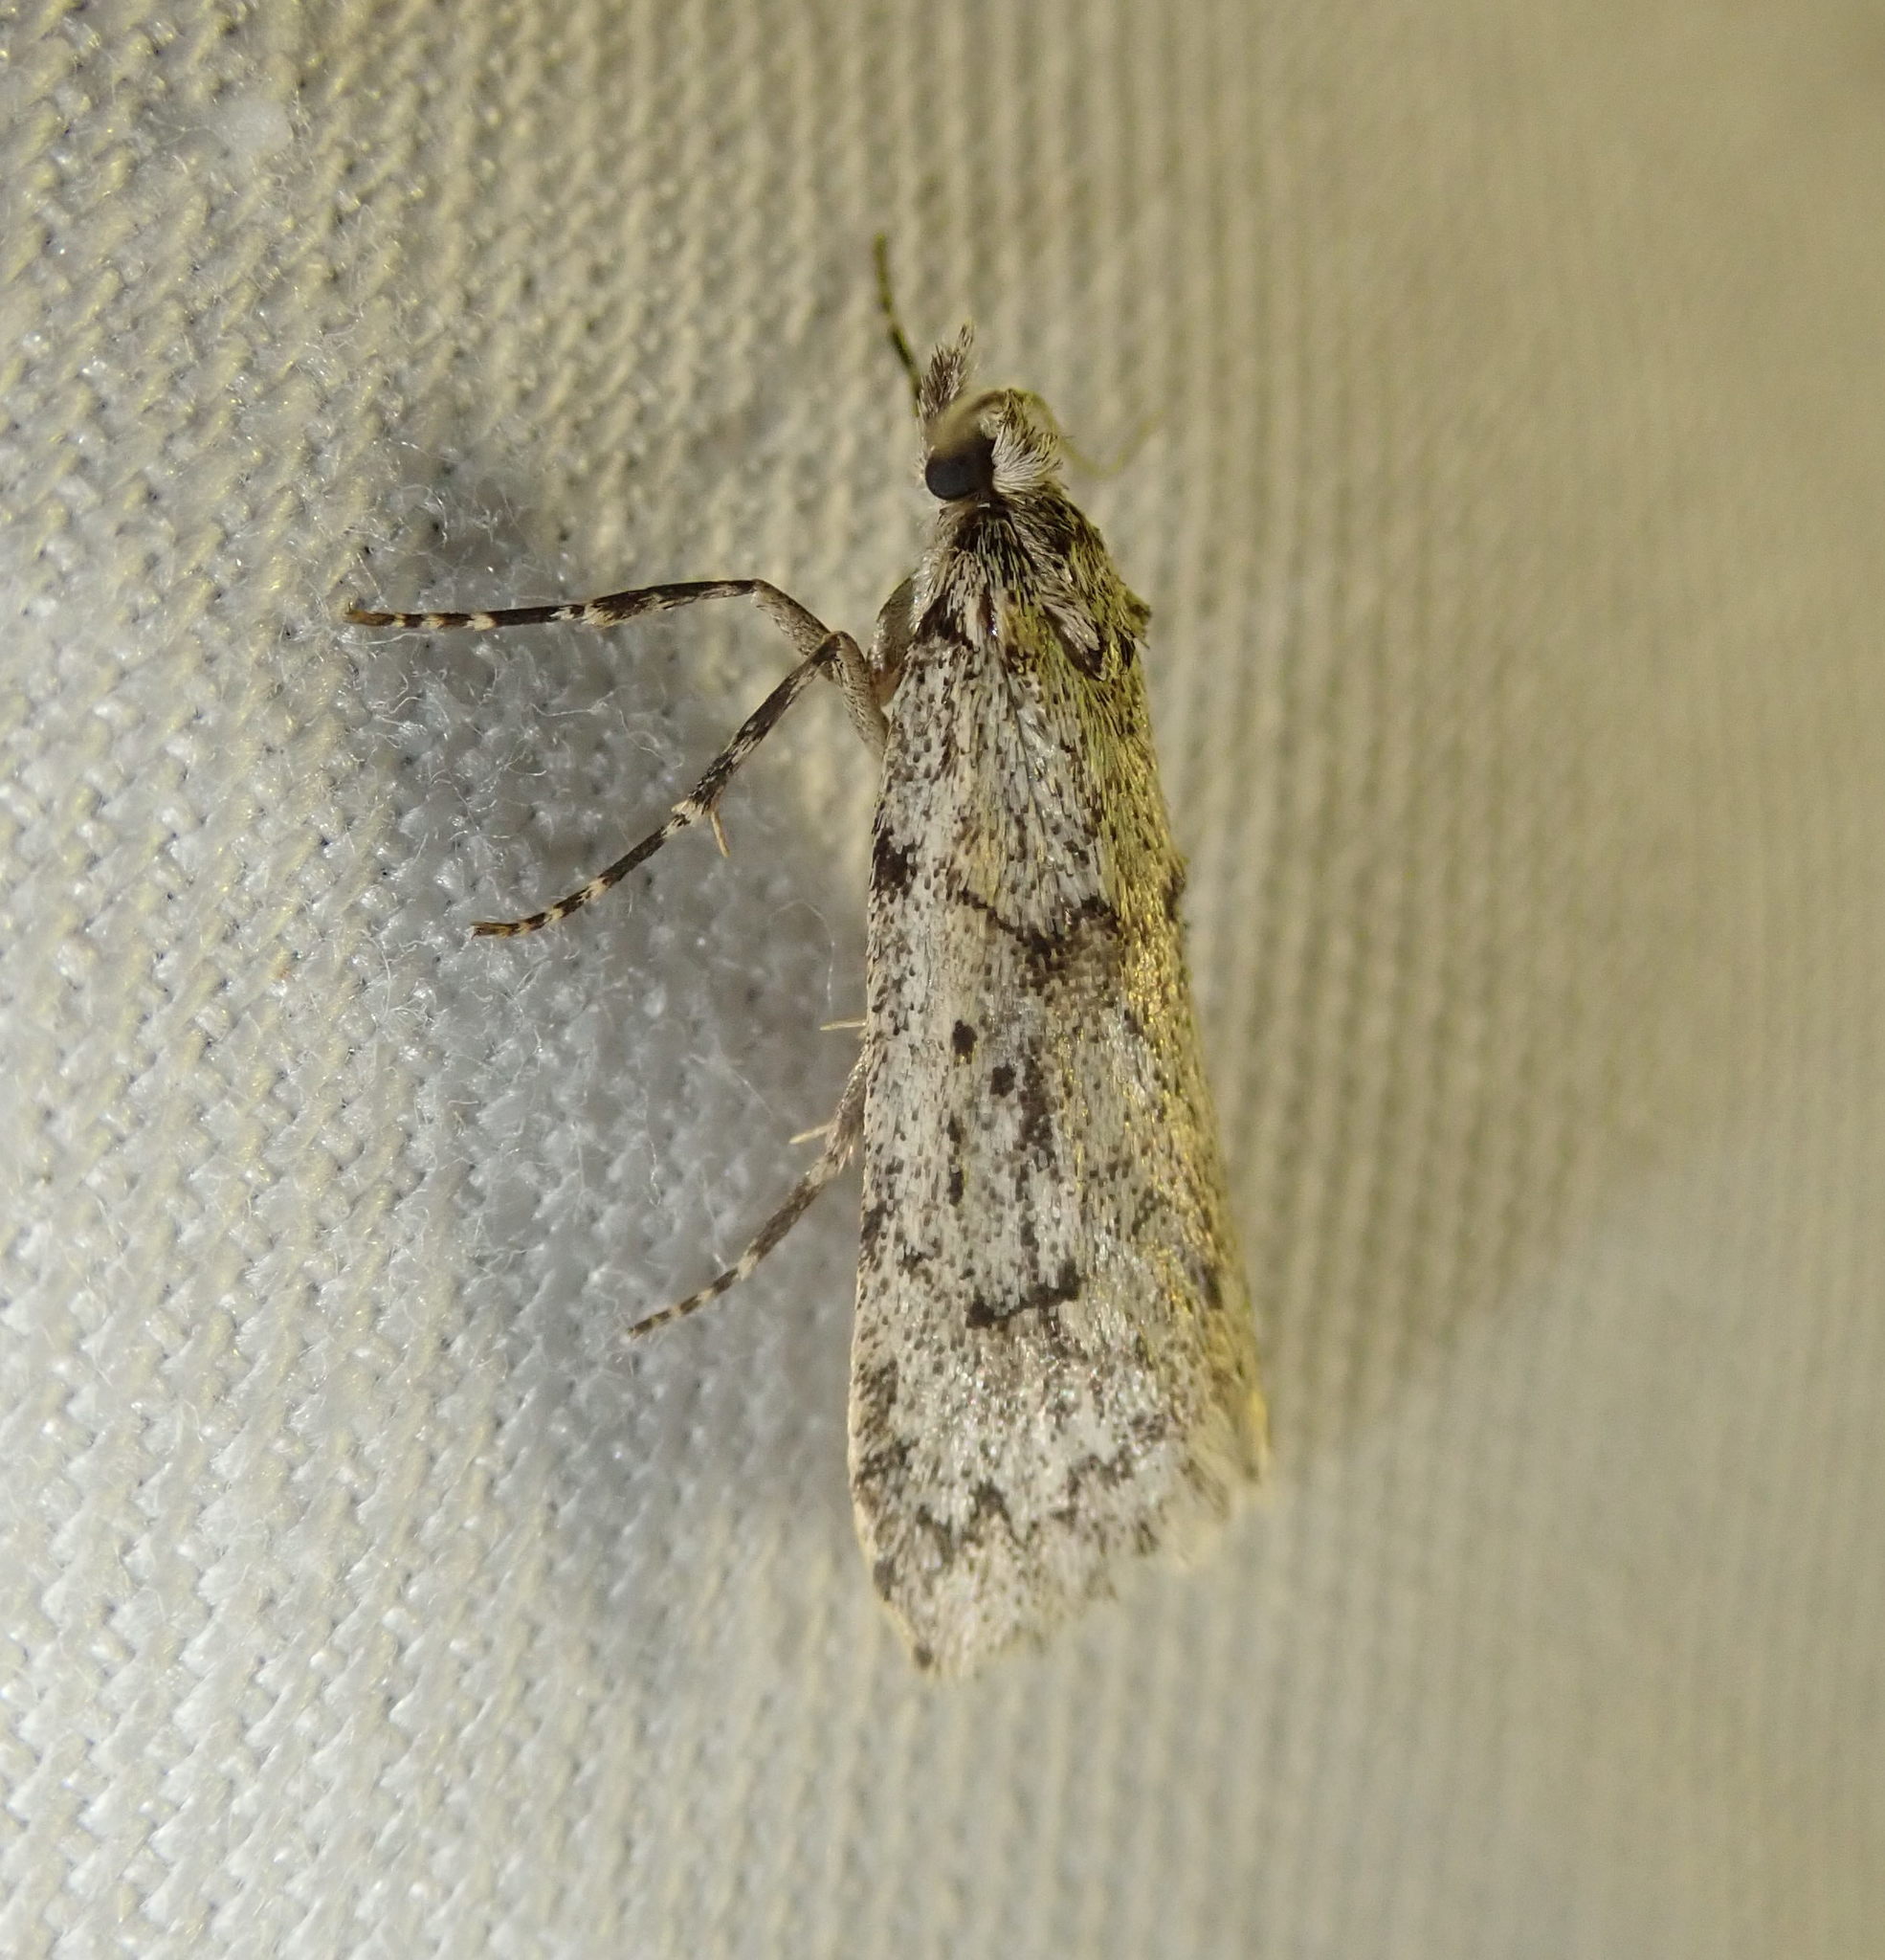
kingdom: Animalia
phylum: Arthropoda
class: Insecta
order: Lepidoptera
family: Lypusidae
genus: Diurnea
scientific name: Diurnea fagella
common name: March tubic
